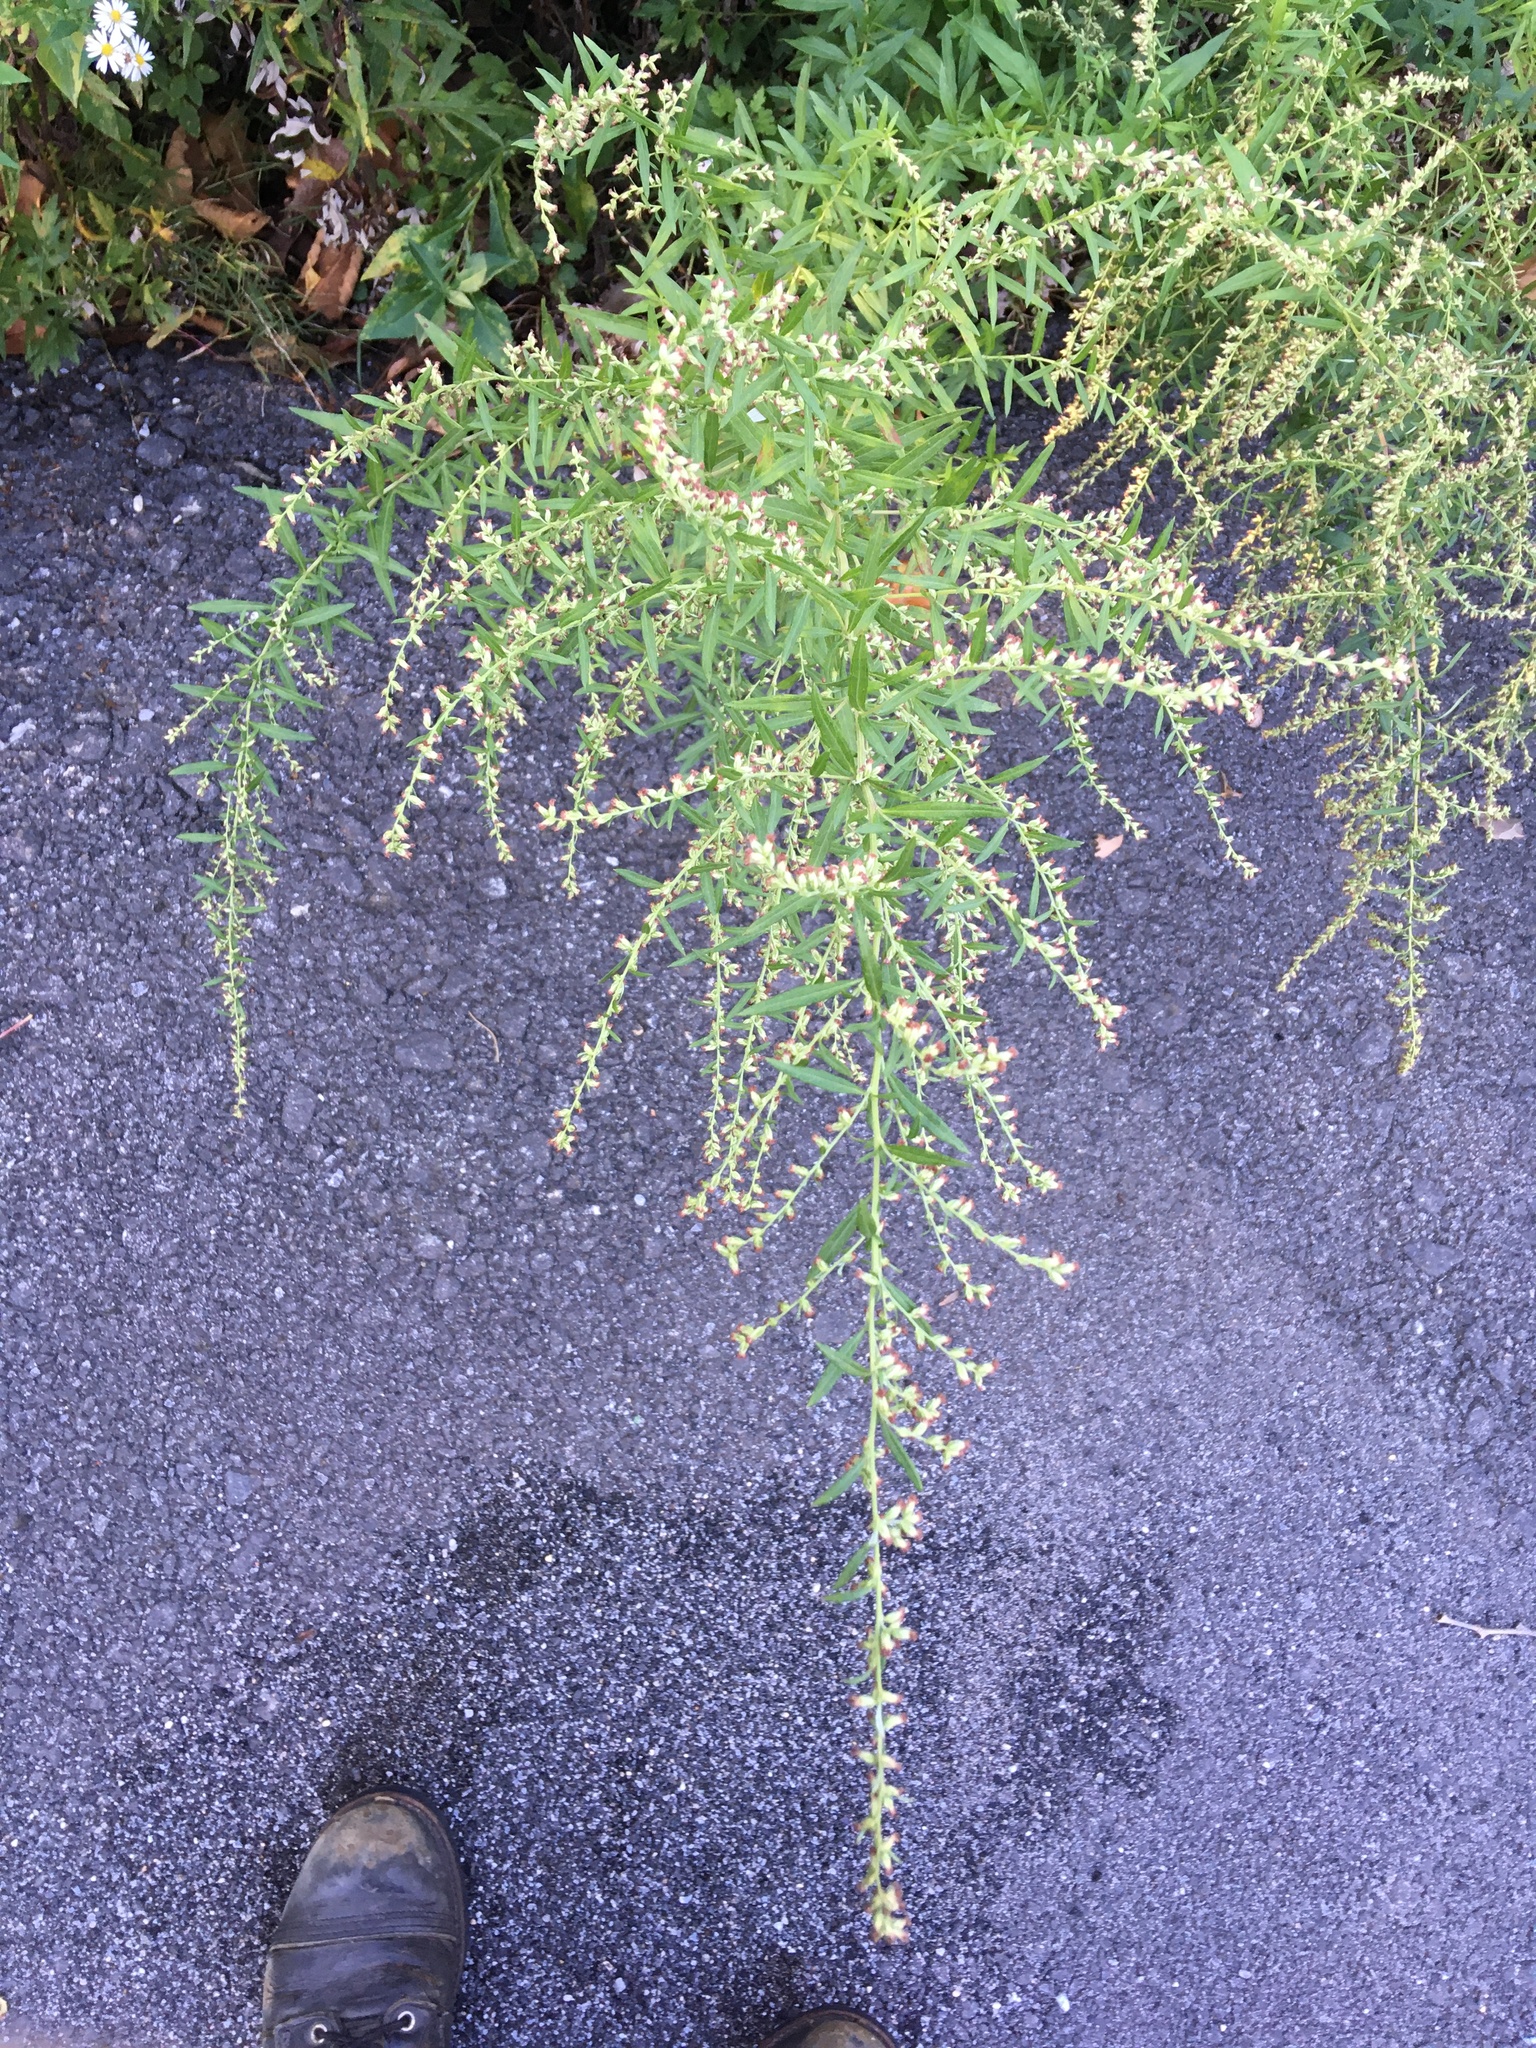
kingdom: Plantae
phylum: Tracheophyta
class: Magnoliopsida
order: Asterales
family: Asteraceae
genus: Artemisia
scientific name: Artemisia vulgaris
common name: Mugwort
